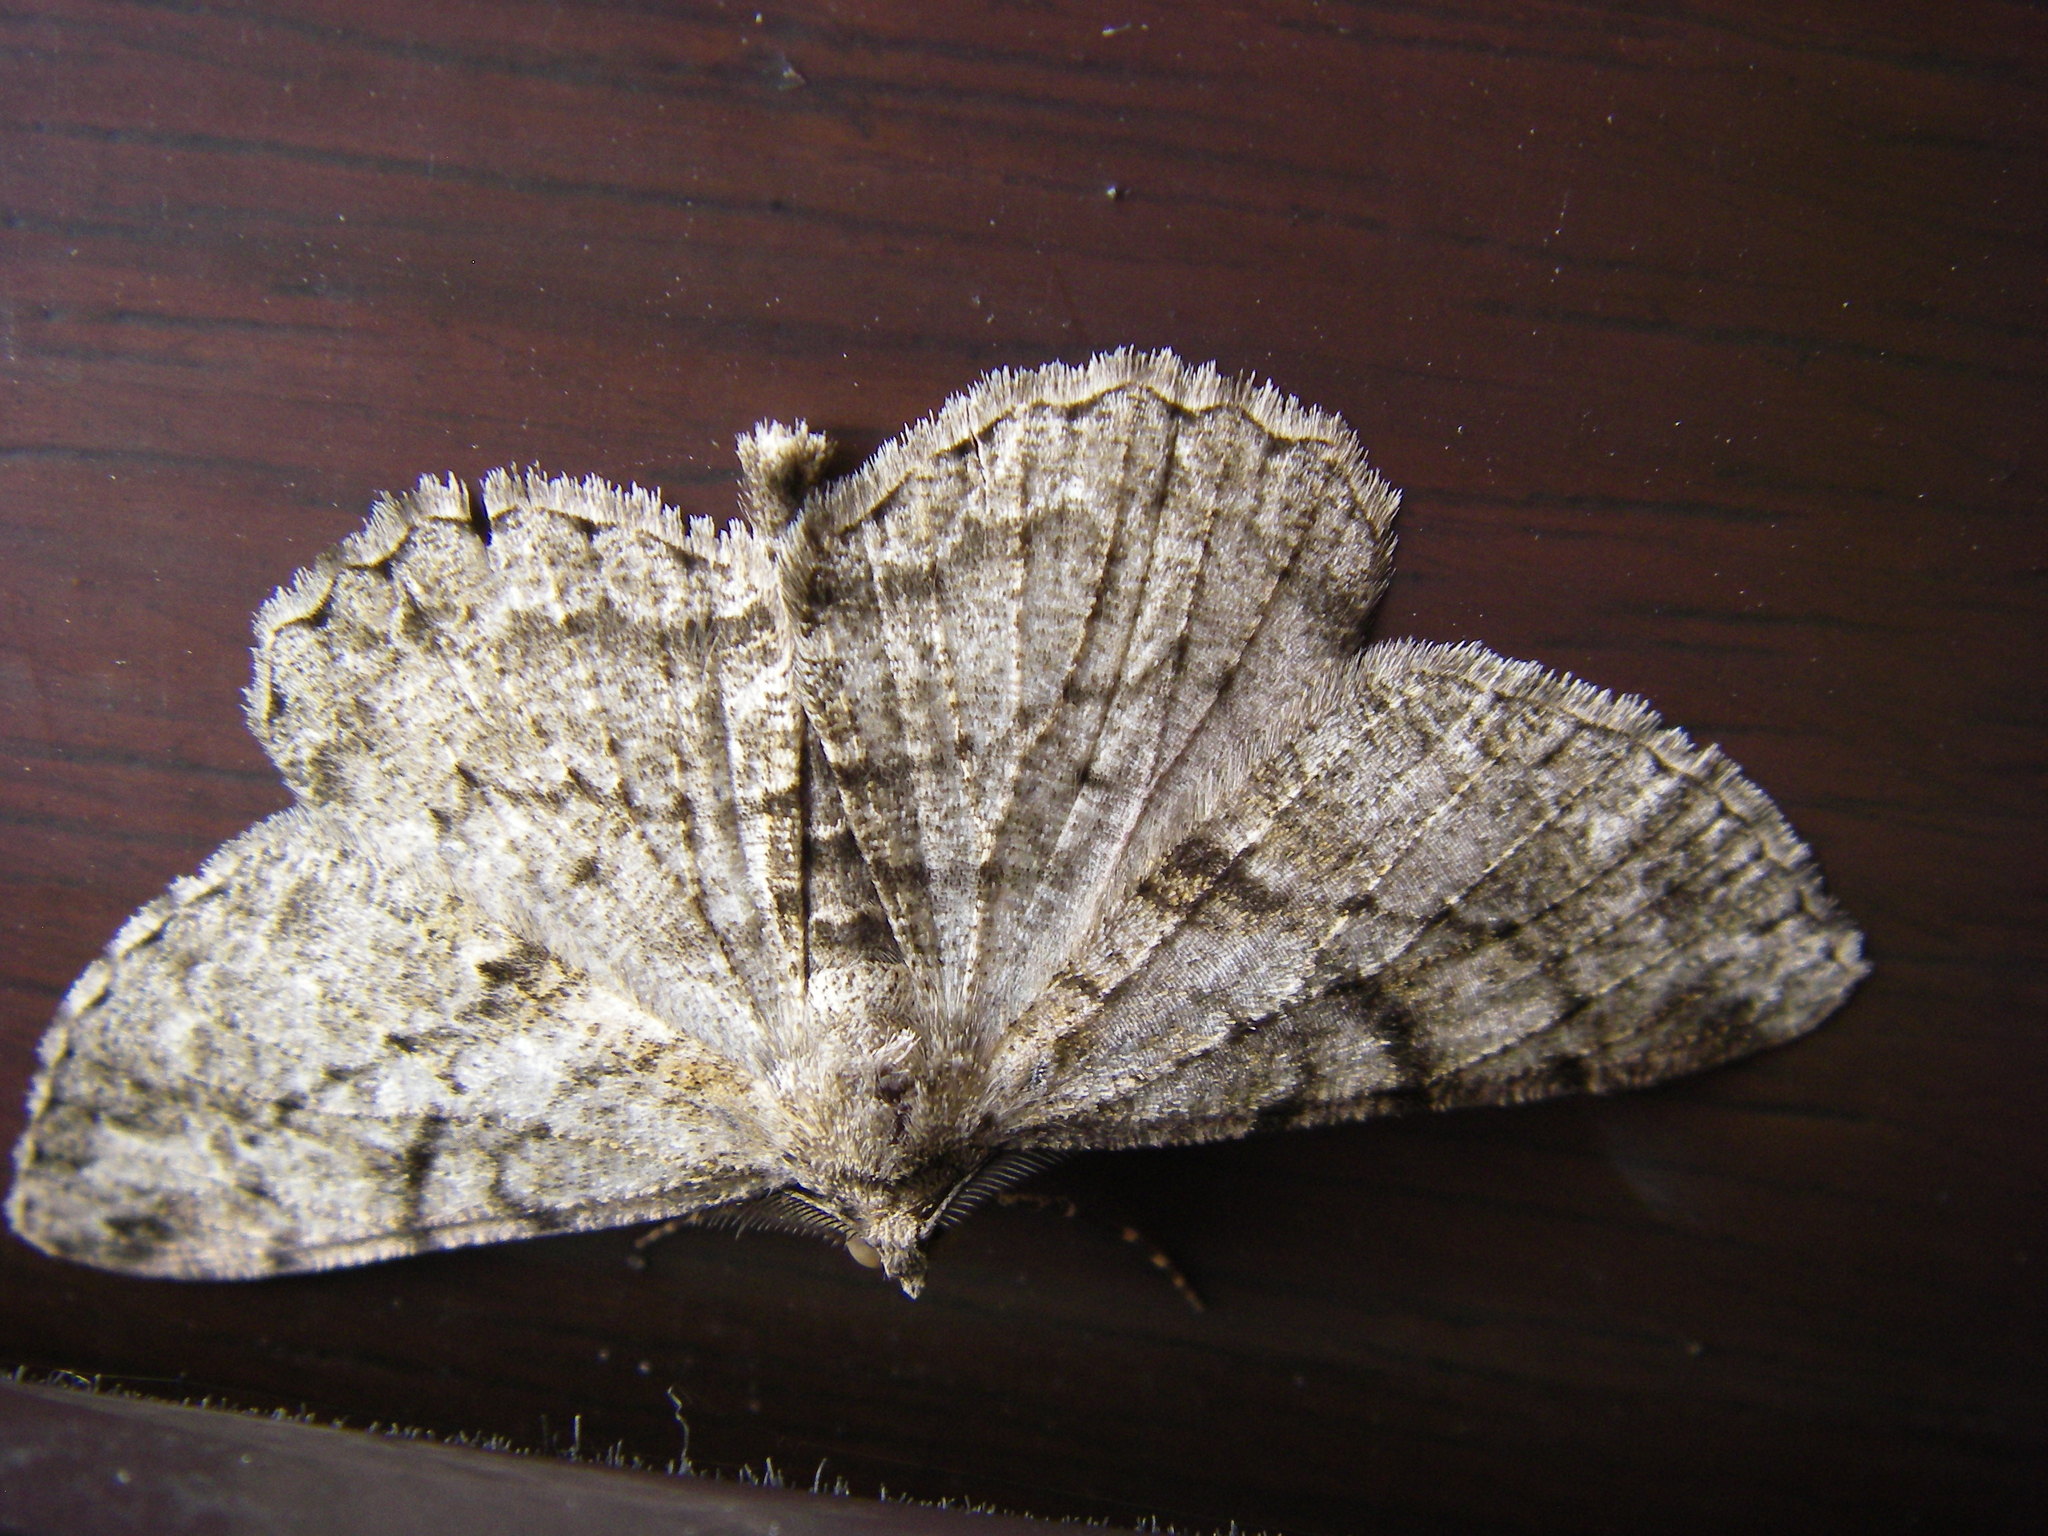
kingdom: Animalia
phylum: Arthropoda
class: Insecta
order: Lepidoptera
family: Geometridae
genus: Peribatodes
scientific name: Peribatodes rhomboidaria
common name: Willow beauty
